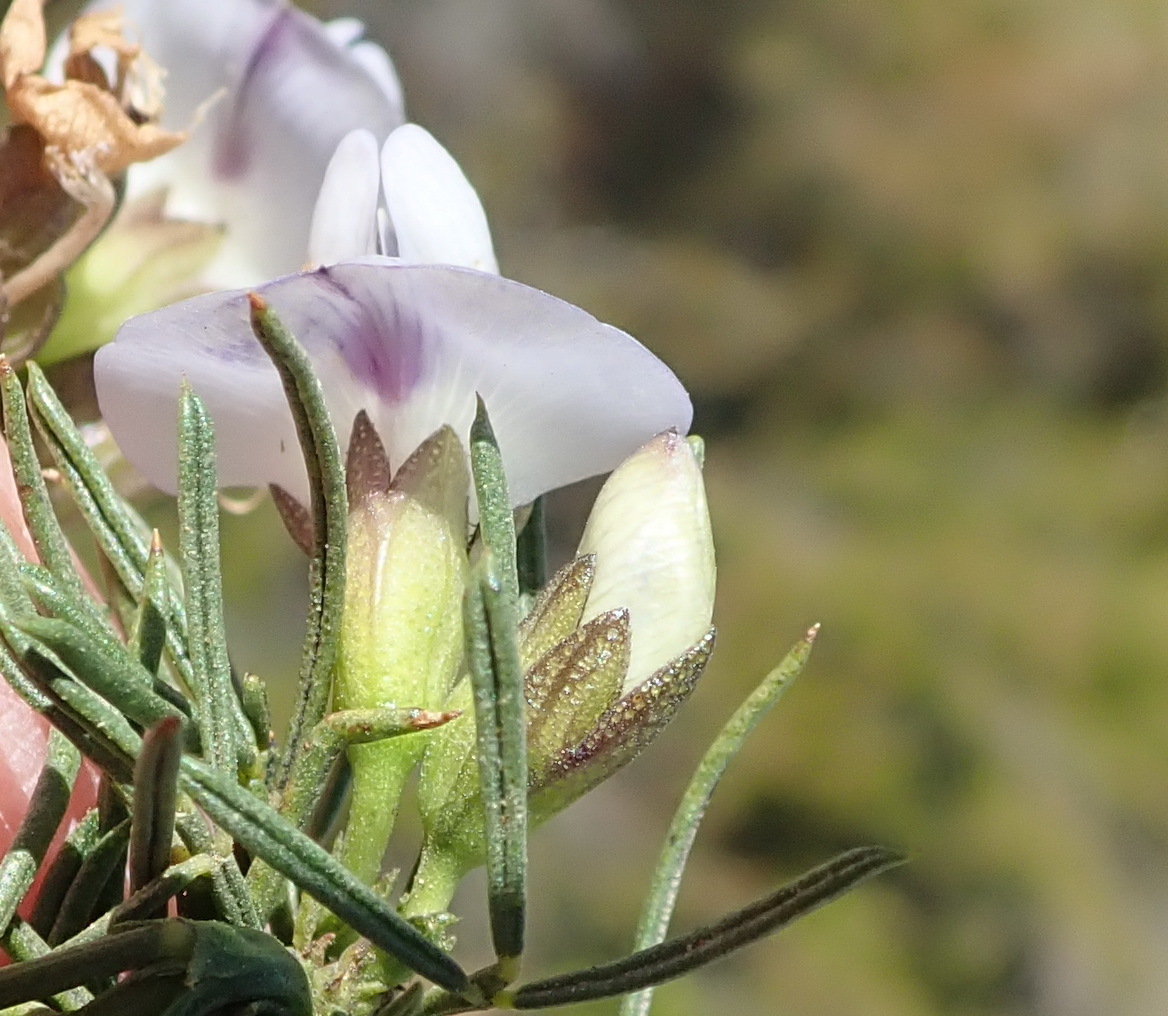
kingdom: Plantae
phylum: Tracheophyta
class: Magnoliopsida
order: Fabales
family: Fabaceae
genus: Psoralea
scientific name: Psoralea
